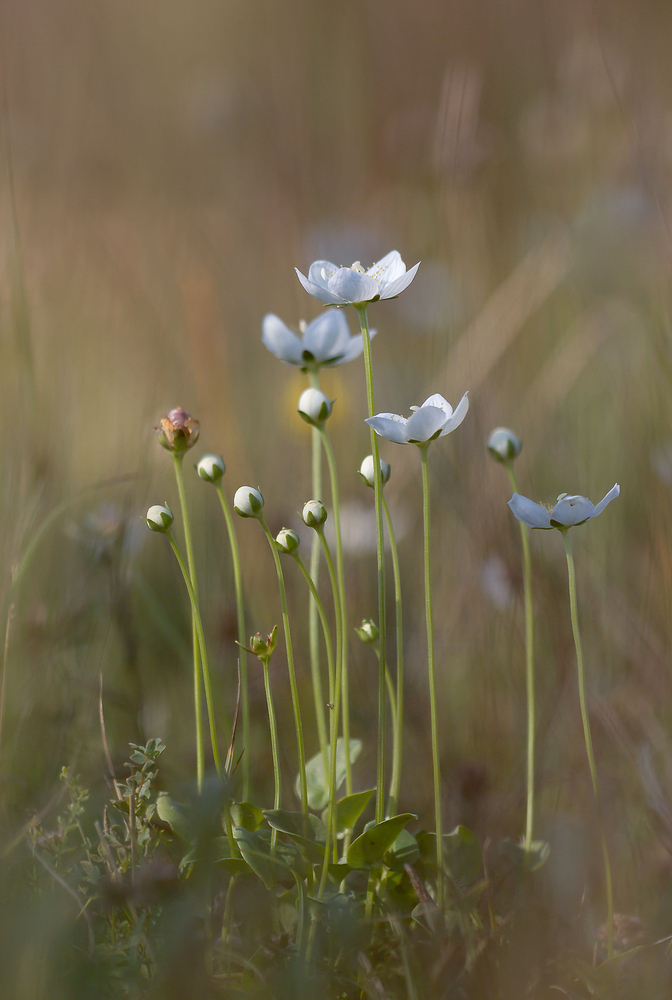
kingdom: Plantae
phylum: Tracheophyta
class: Magnoliopsida
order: Celastrales
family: Parnassiaceae
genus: Parnassia
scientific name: Parnassia palustris
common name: Grass-of-parnassus
